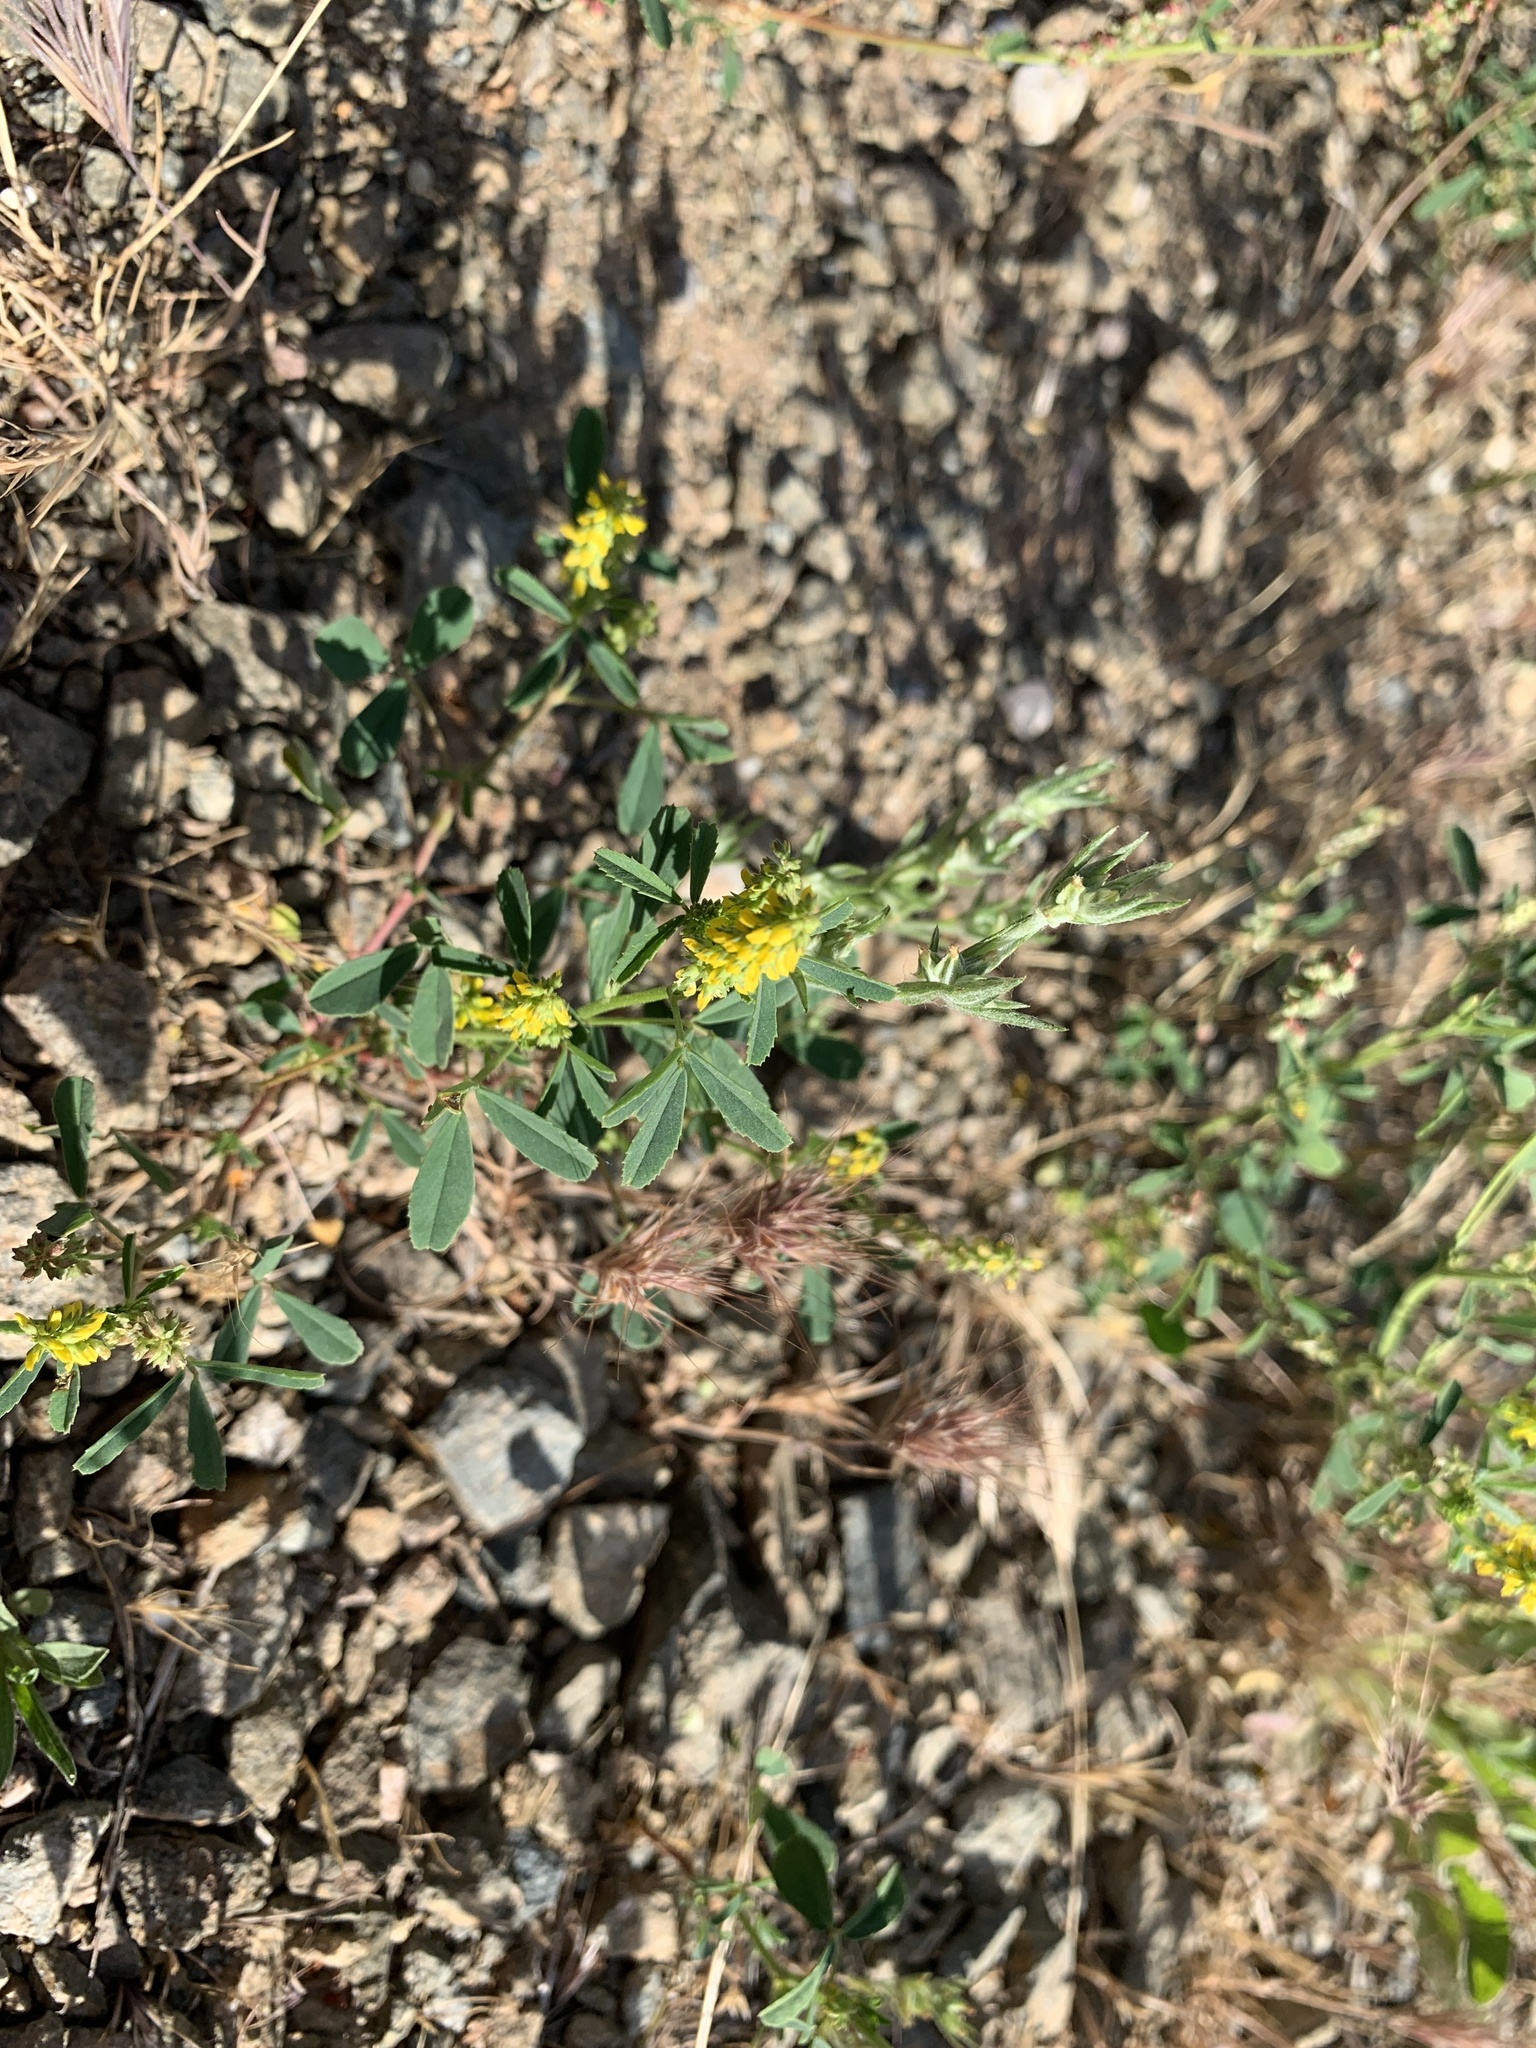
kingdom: Plantae
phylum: Tracheophyta
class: Magnoliopsida
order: Fabales
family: Fabaceae
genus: Melilotus
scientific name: Melilotus indicus
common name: Small melilot
